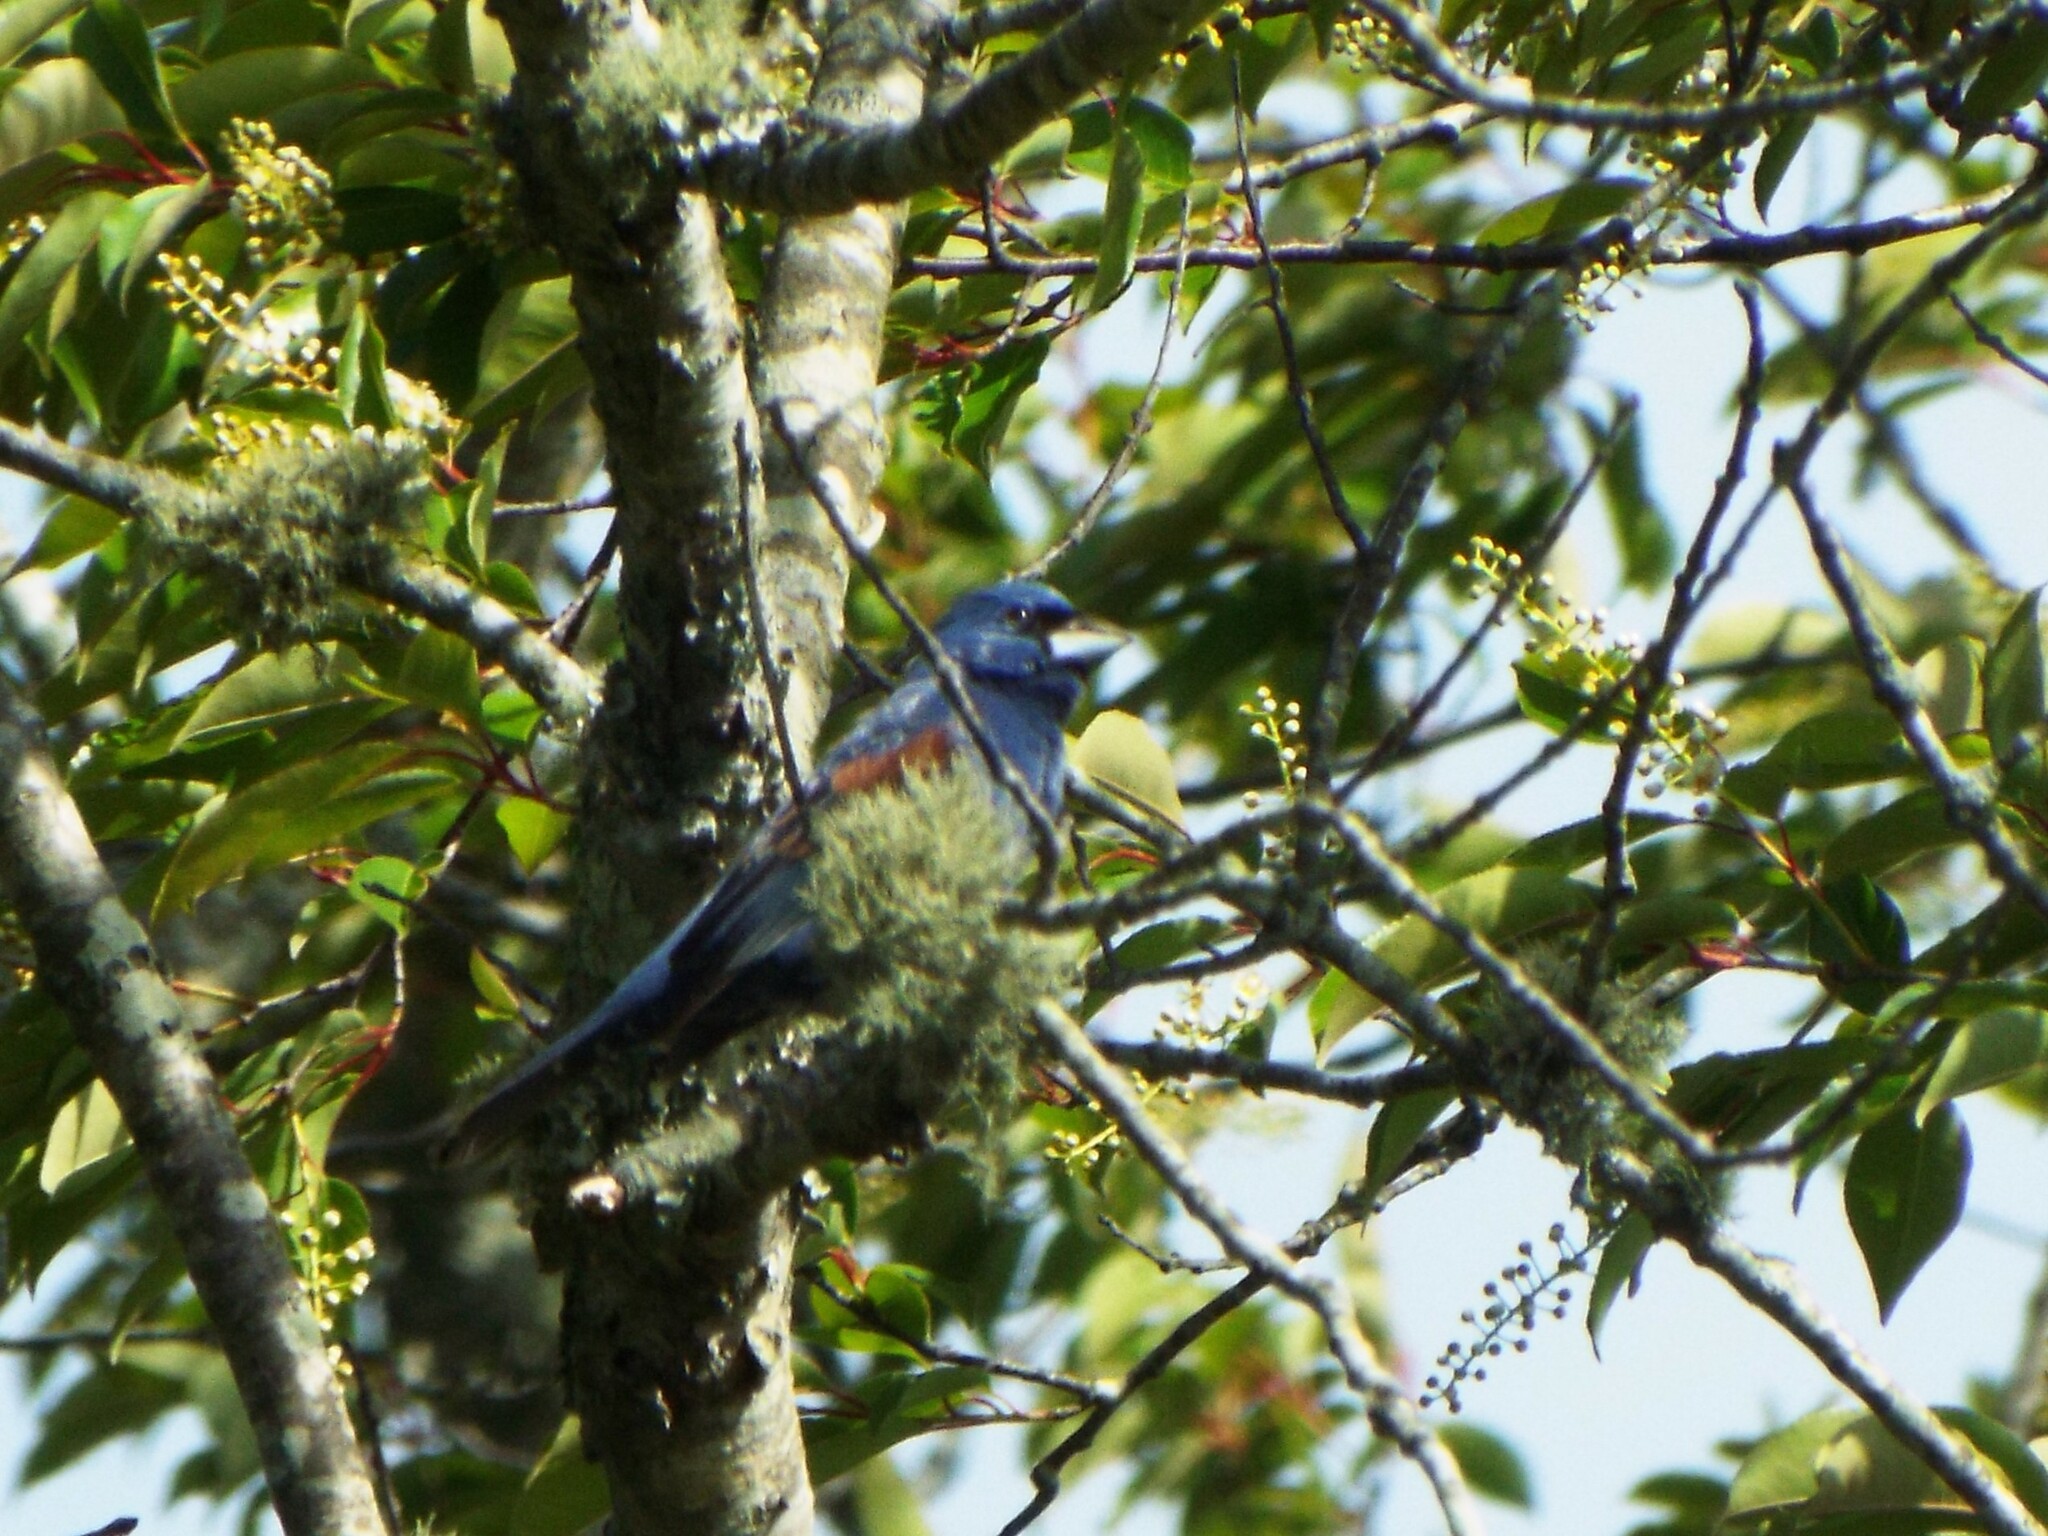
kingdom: Animalia
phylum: Chordata
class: Aves
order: Passeriformes
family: Cardinalidae
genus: Passerina
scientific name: Passerina caerulea
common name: Blue grosbeak
